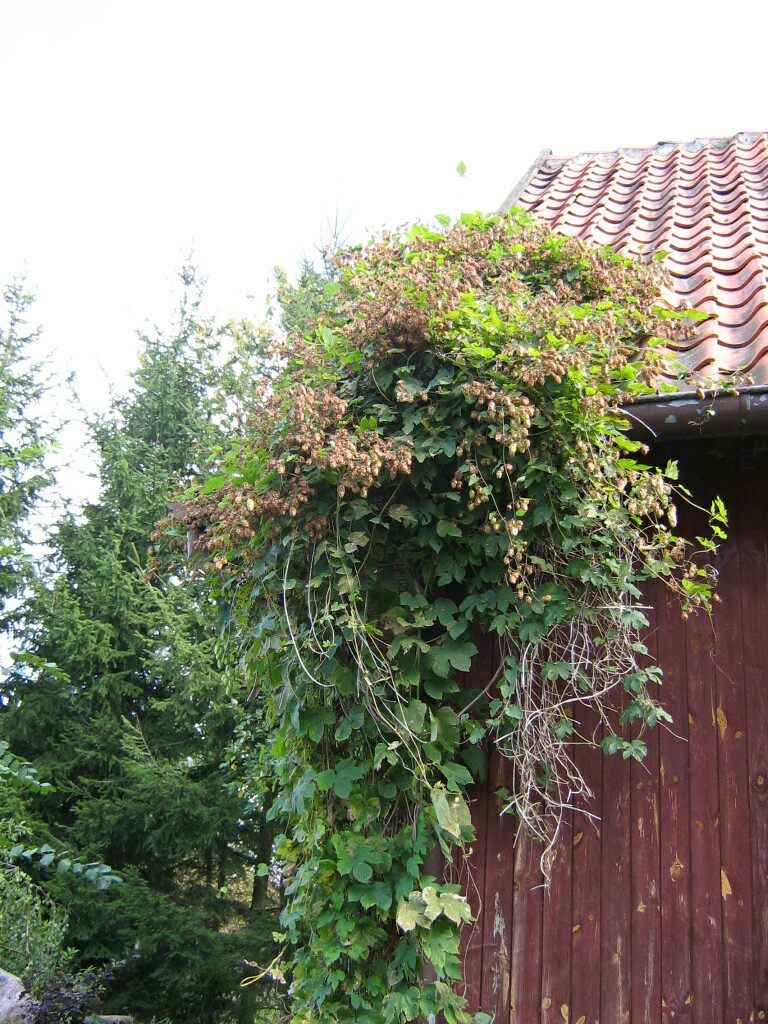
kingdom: Plantae
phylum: Tracheophyta
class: Magnoliopsida
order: Rosales
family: Cannabaceae
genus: Humulus
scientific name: Humulus lupulus
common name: Hop
